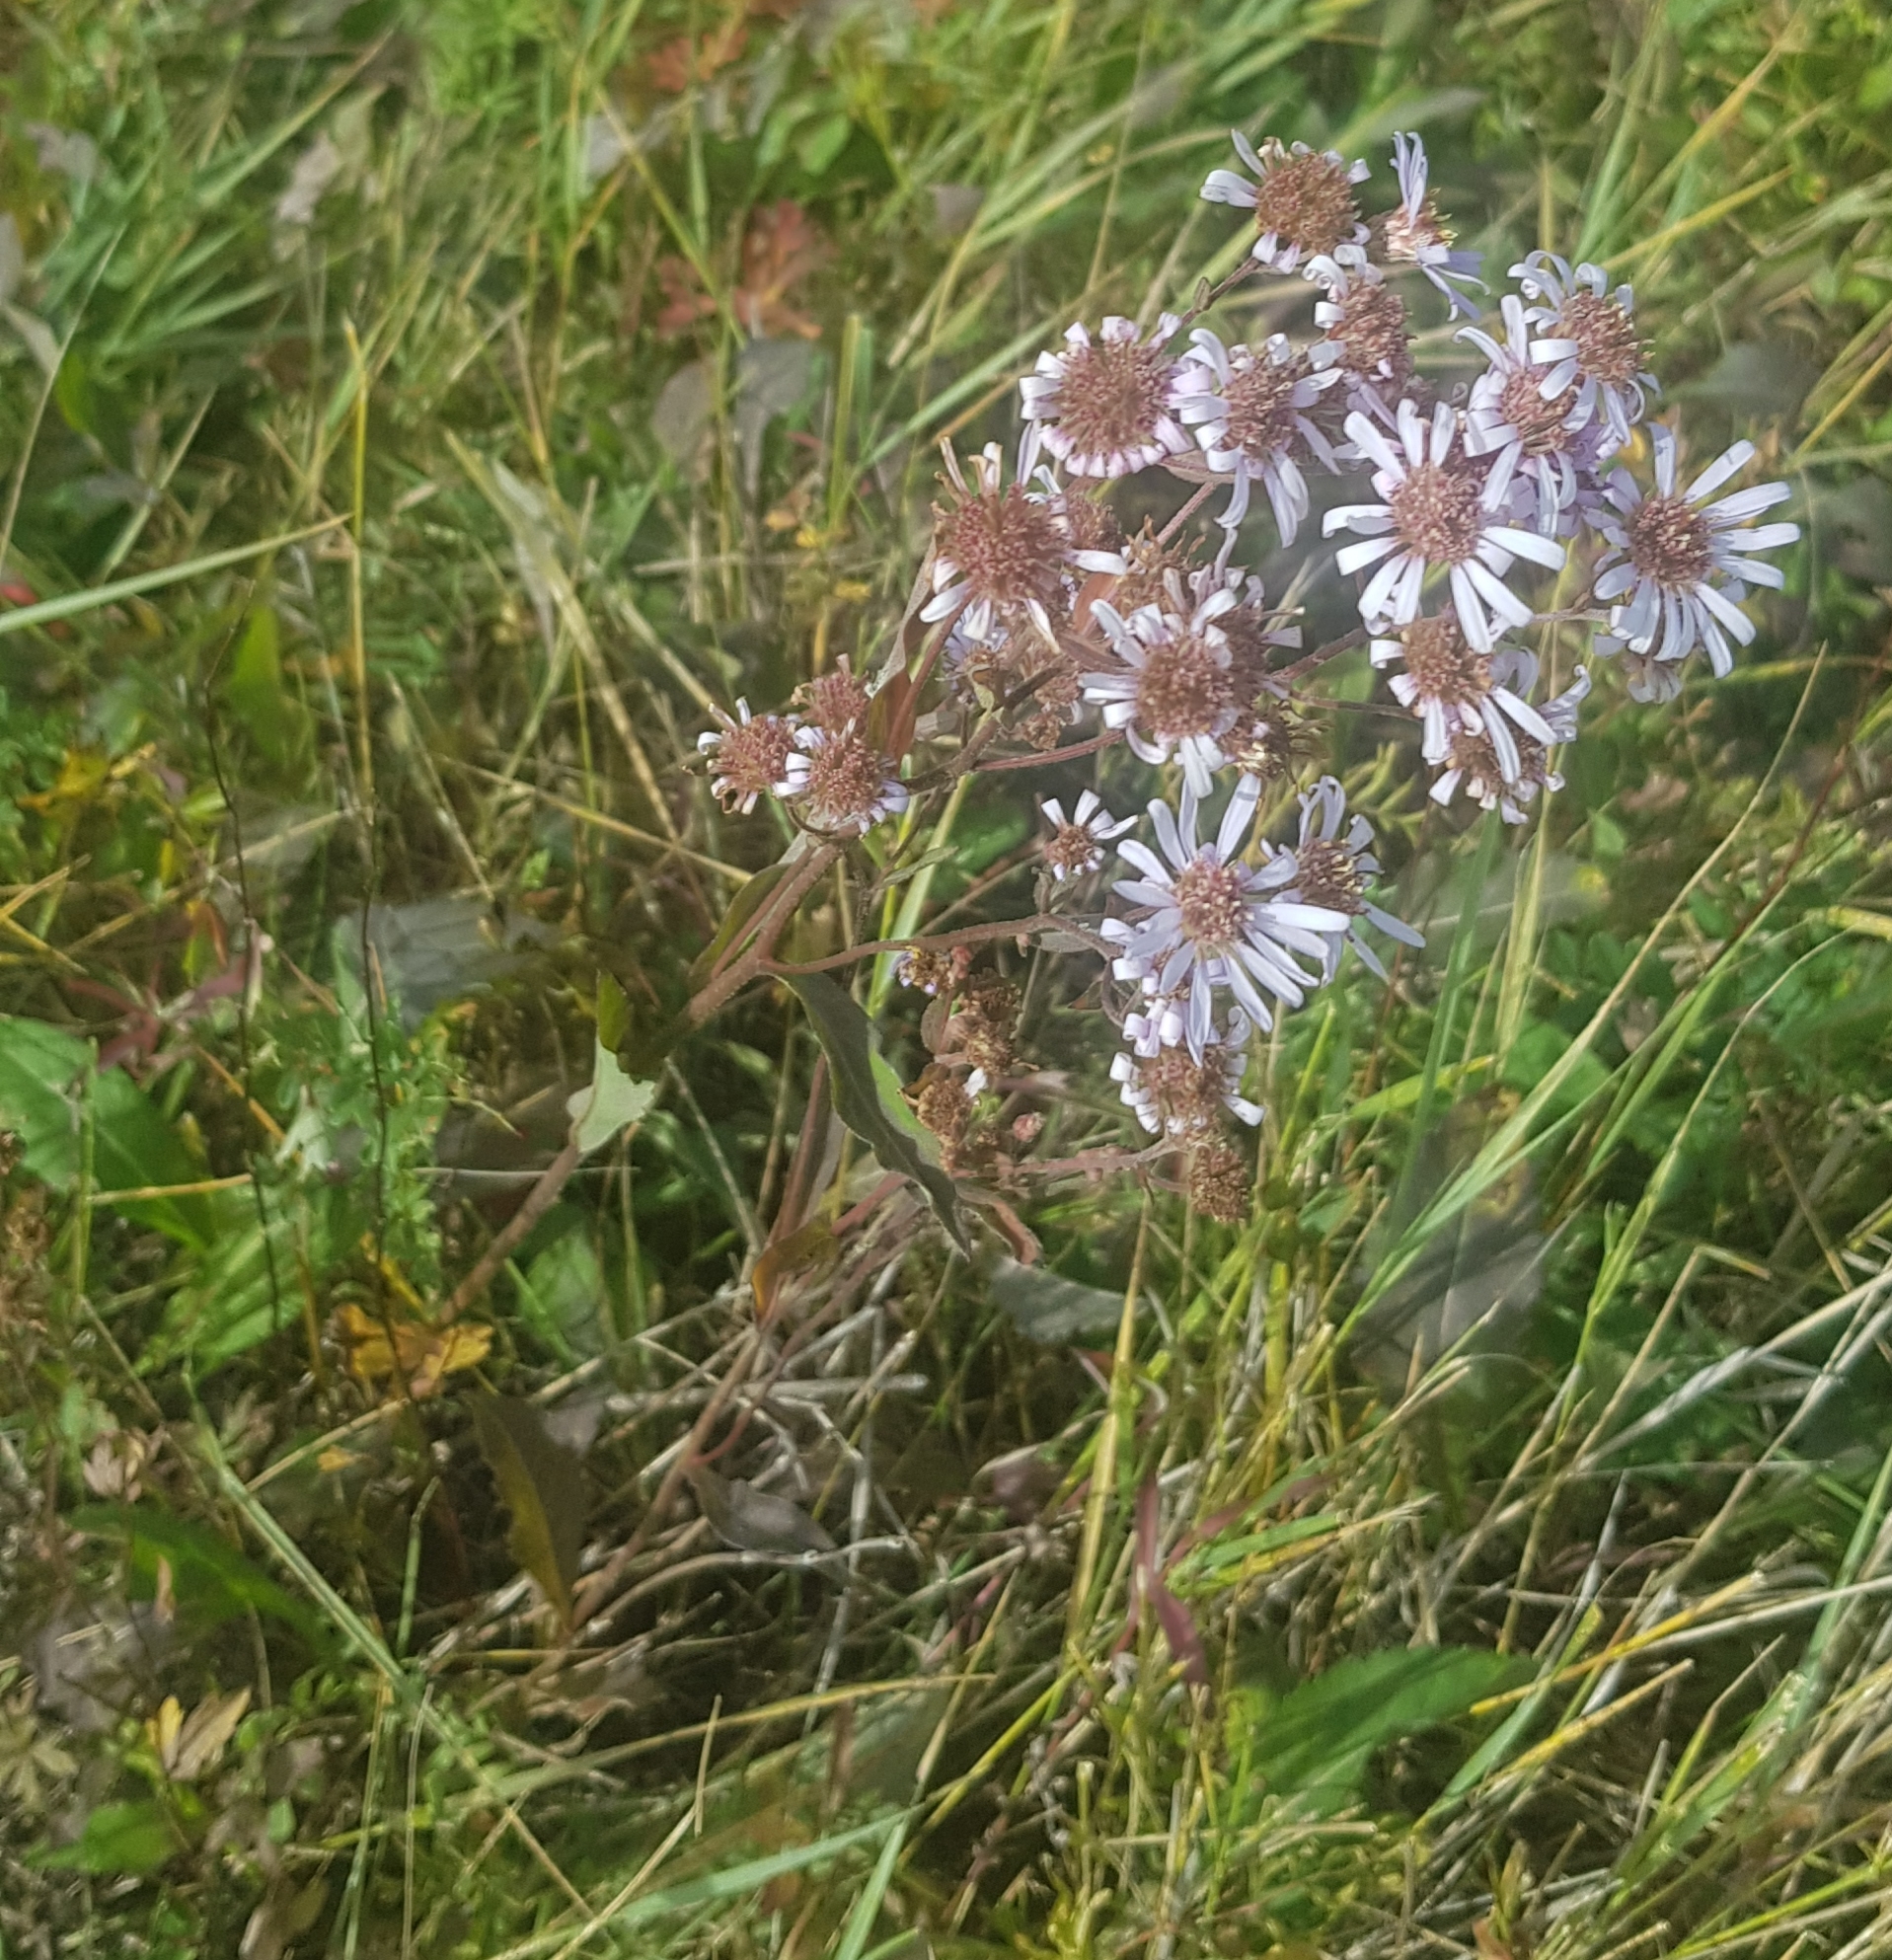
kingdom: Plantae
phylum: Tracheophyta
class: Magnoliopsida
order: Asterales
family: Asteraceae
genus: Aster
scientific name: Aster tataricus
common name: Tatarian aster
